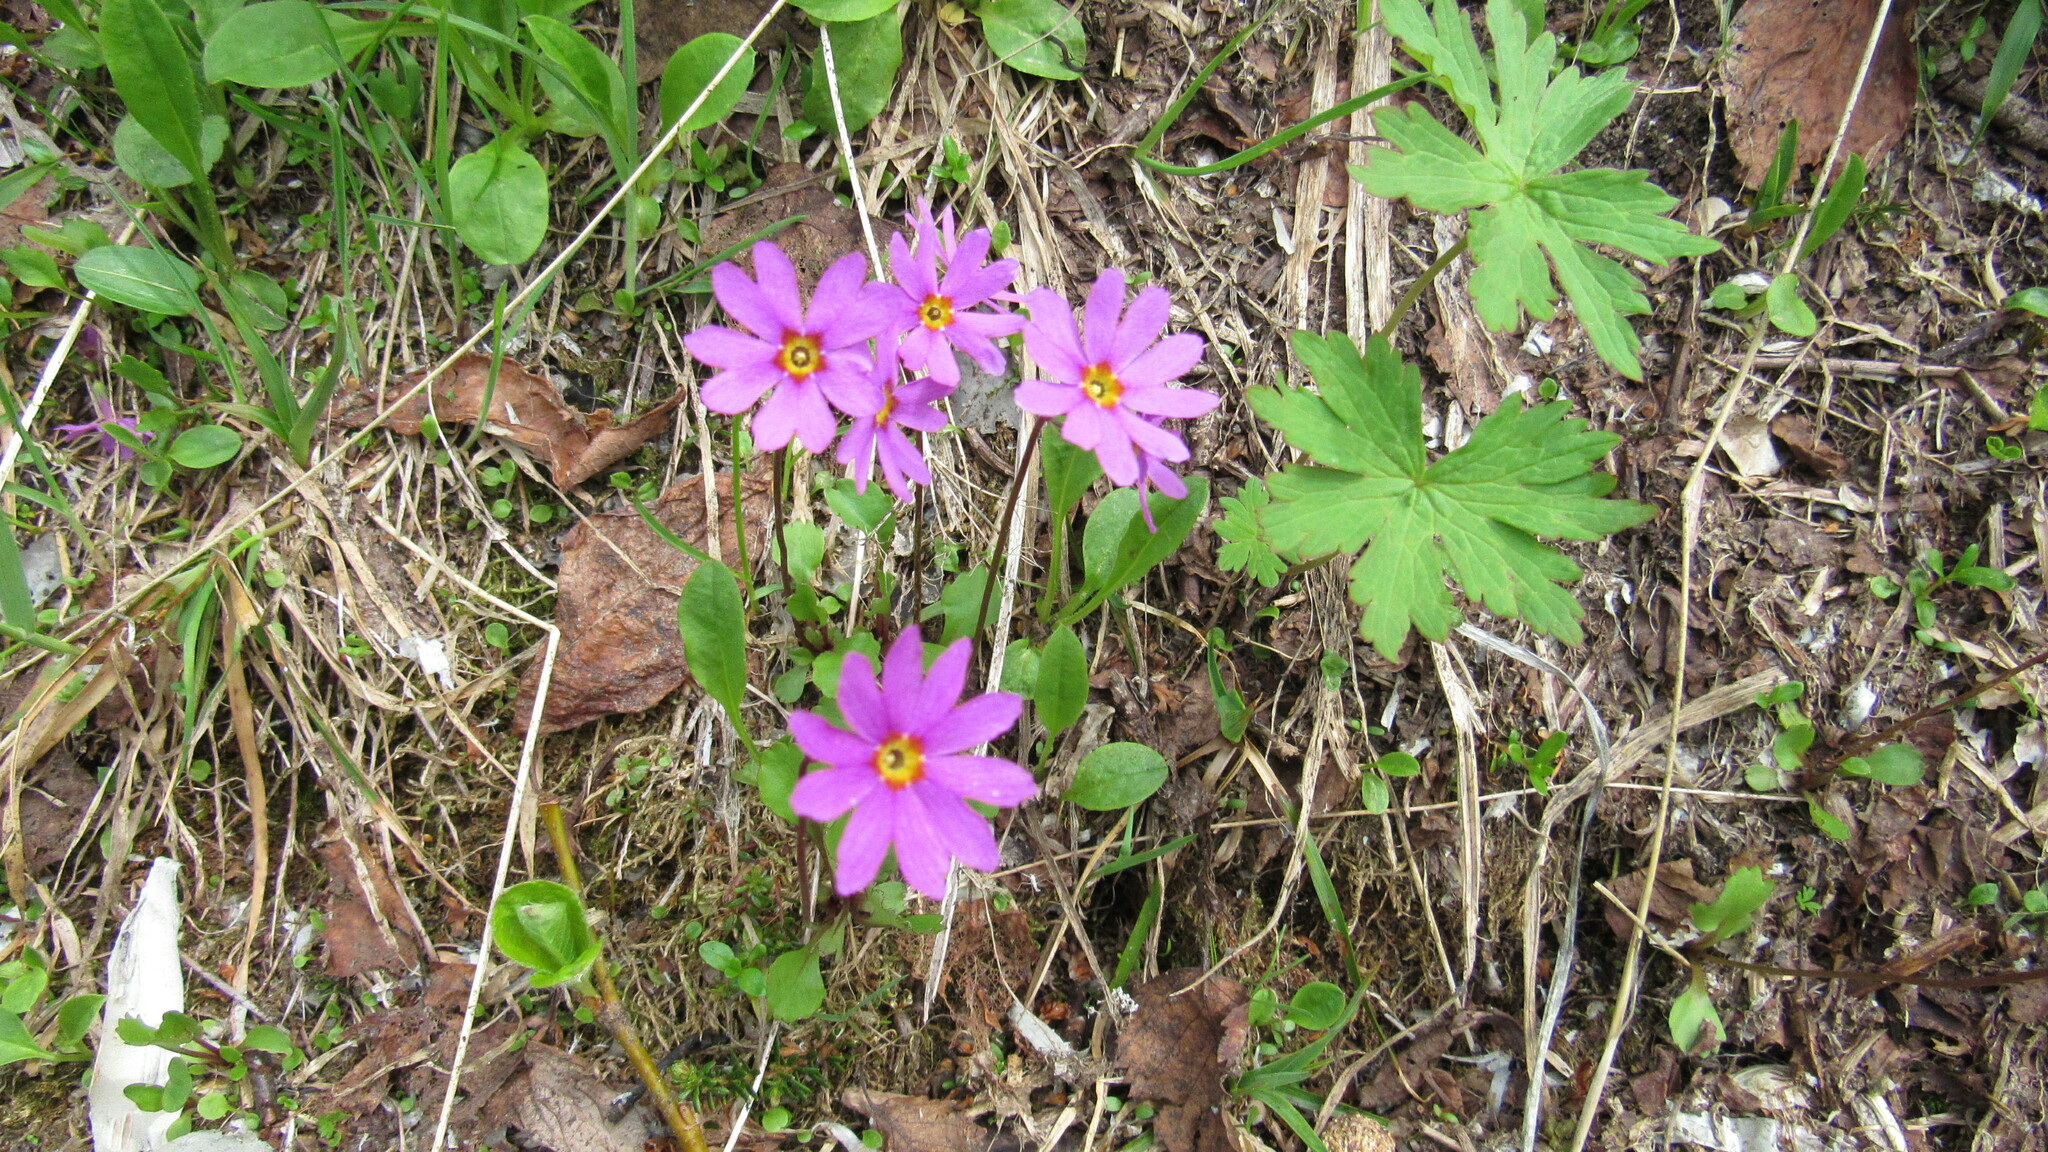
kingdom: Plantae
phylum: Tracheophyta
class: Magnoliopsida
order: Ericales
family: Primulaceae
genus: Primula
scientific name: Primula cuneifolia
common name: Wedge-leaved primrose
